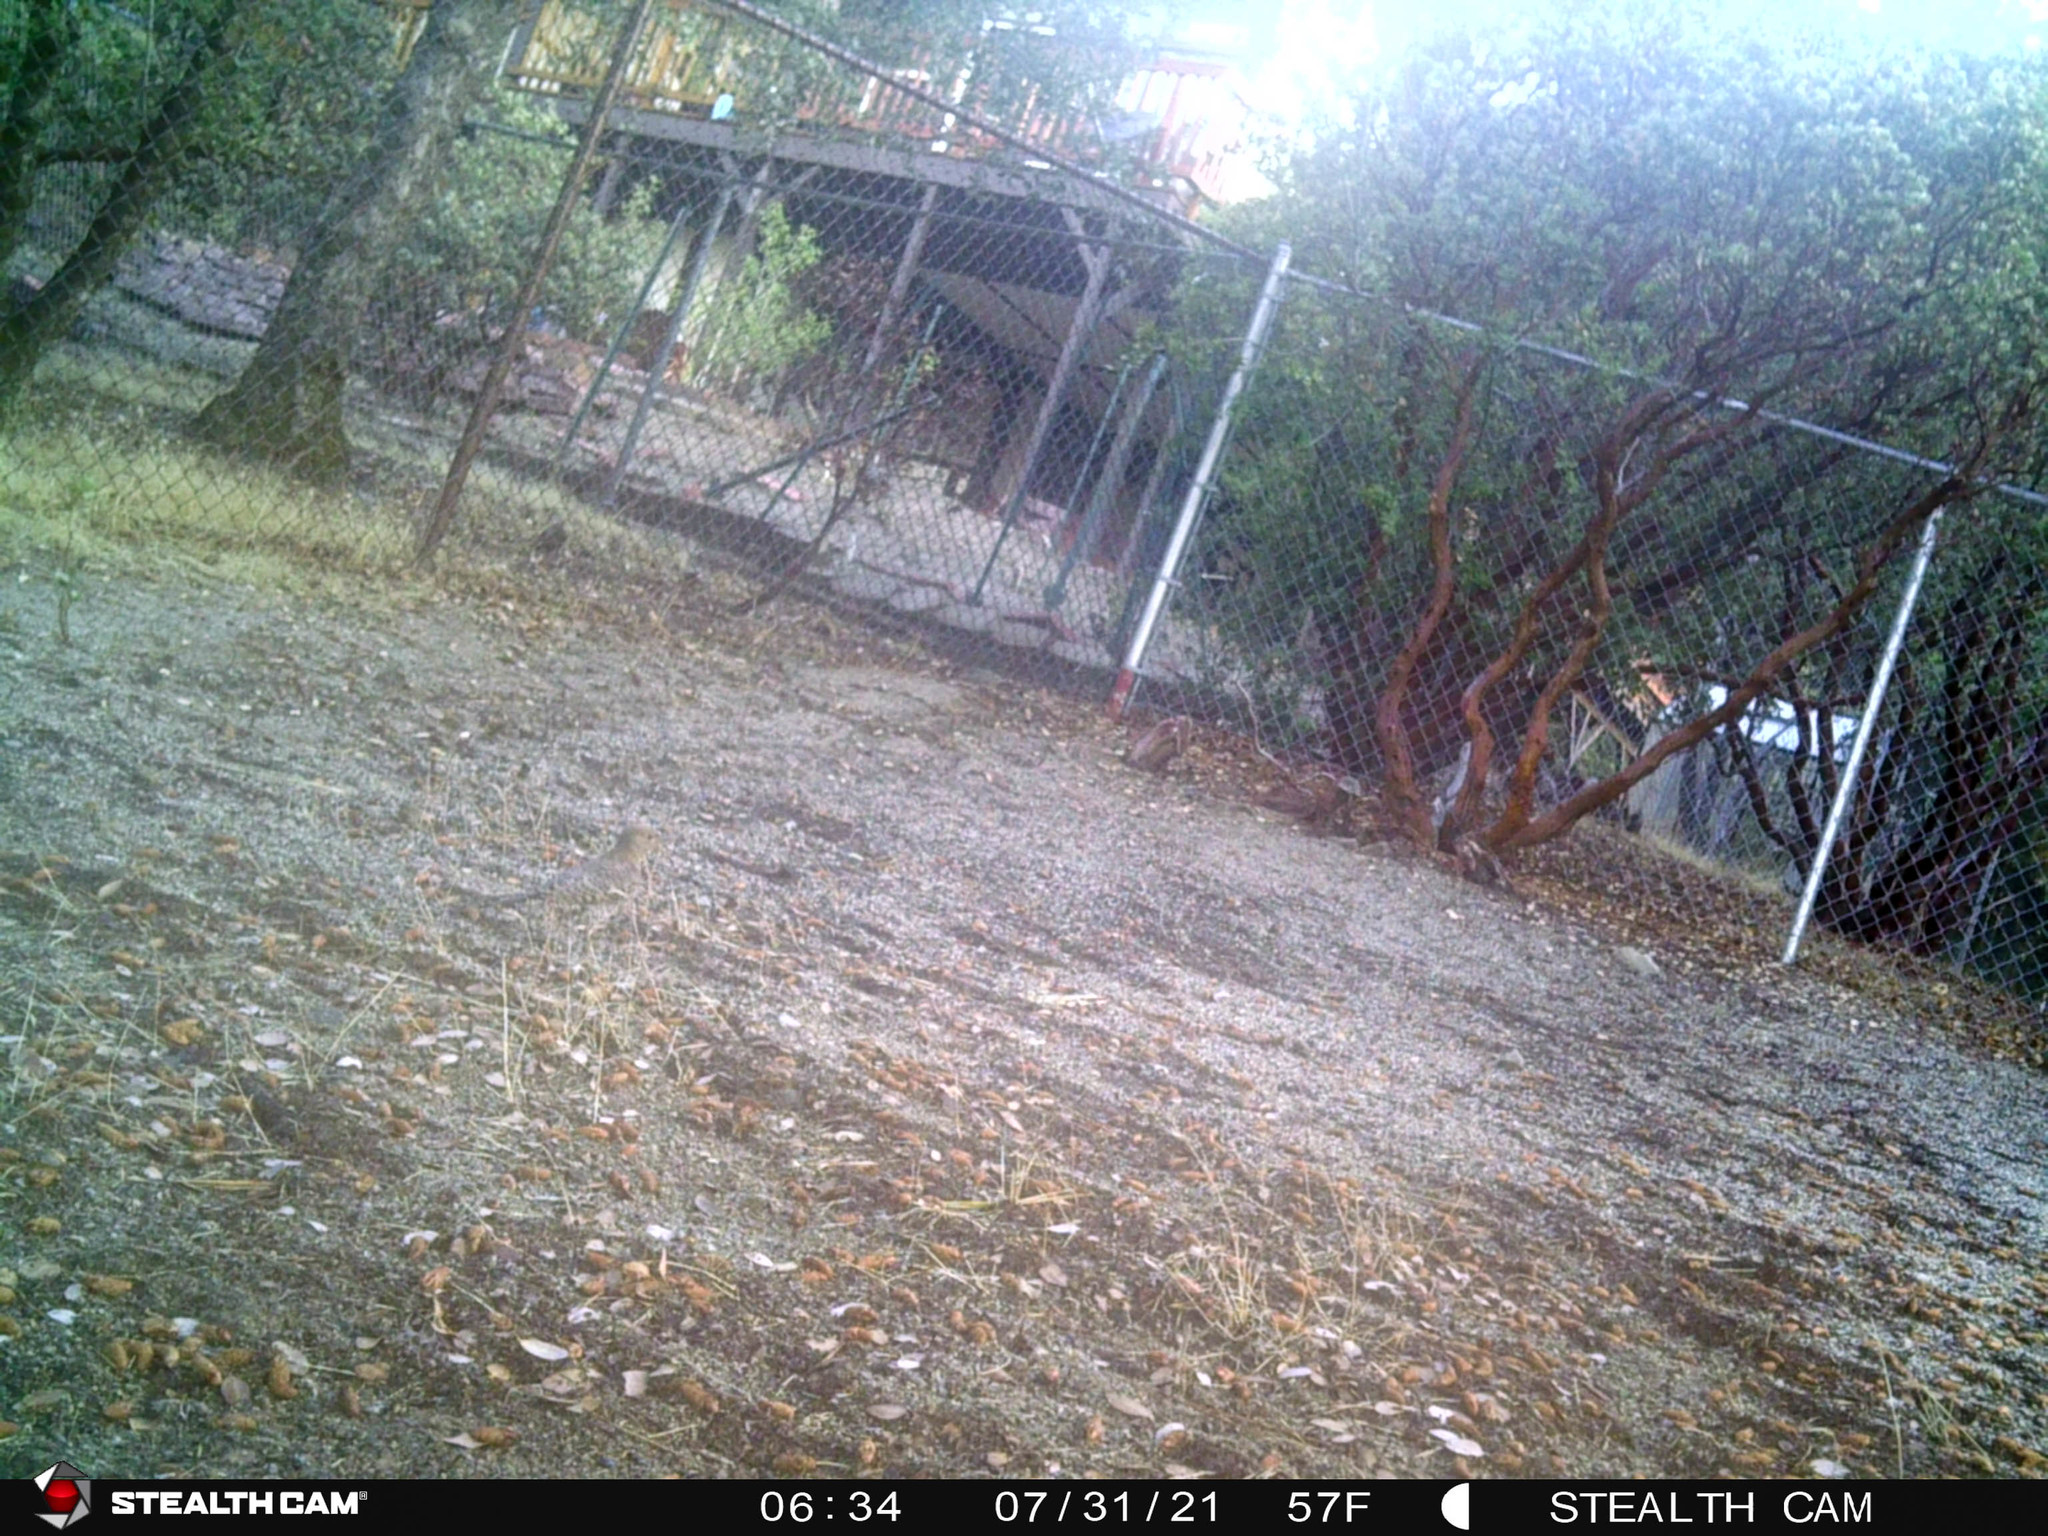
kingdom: Animalia
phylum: Chordata
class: Aves
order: Piciformes
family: Picidae
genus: Colaptes
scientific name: Colaptes auratus
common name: Northern flicker
